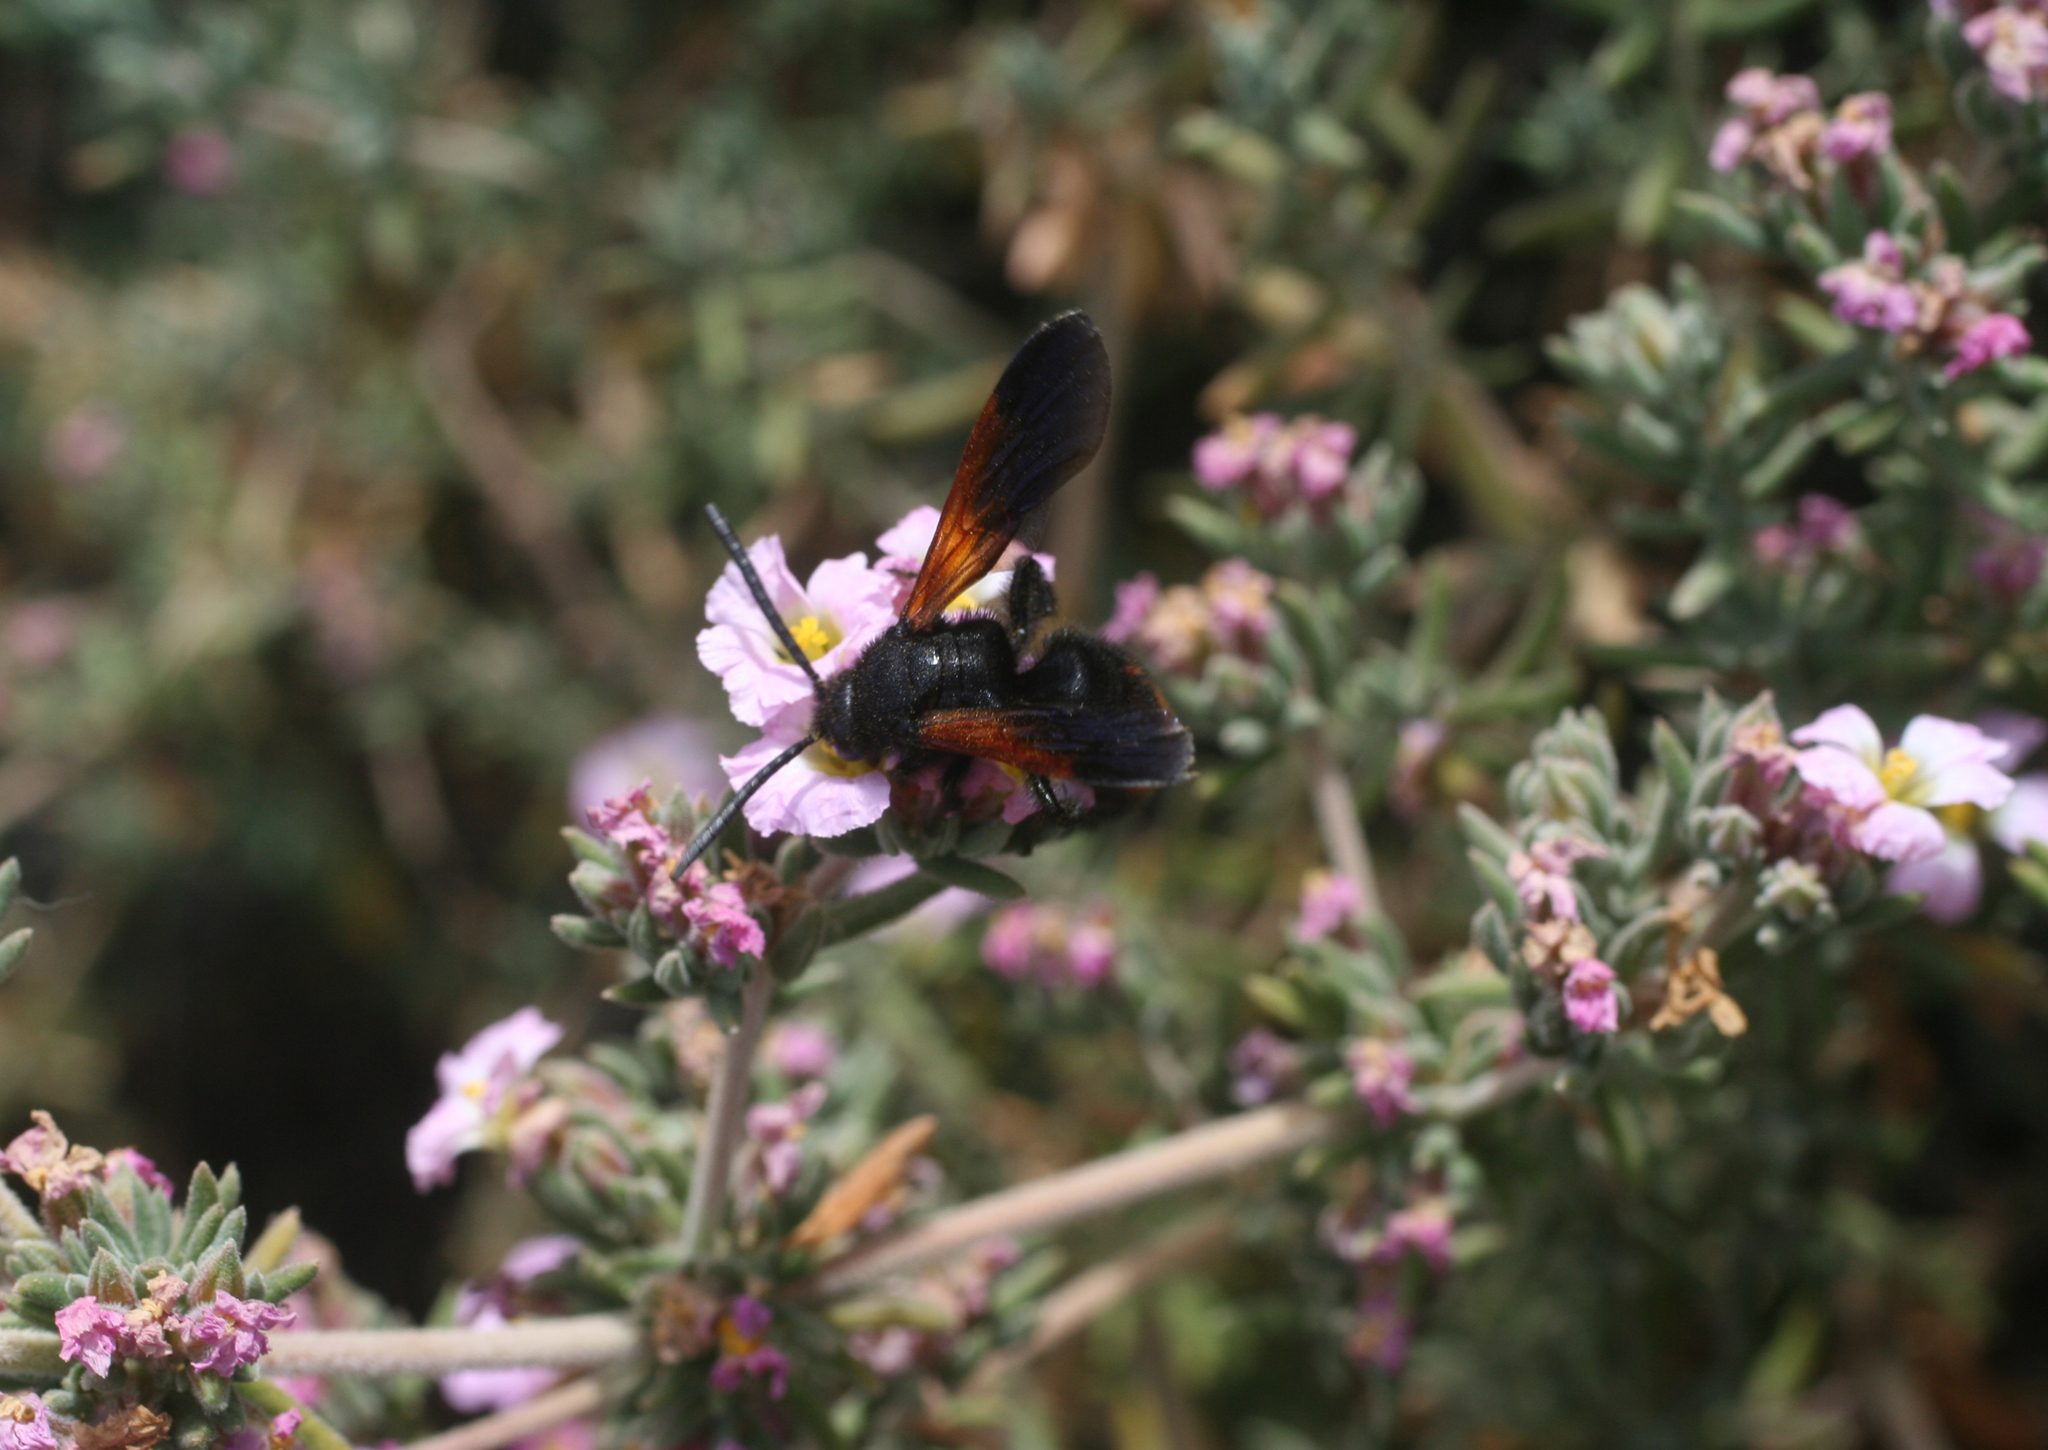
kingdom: Plantae
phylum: Tracheophyta
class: Magnoliopsida
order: Caryophyllales
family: Frankeniaceae
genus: Frankenia
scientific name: Frankenia corymbosa
